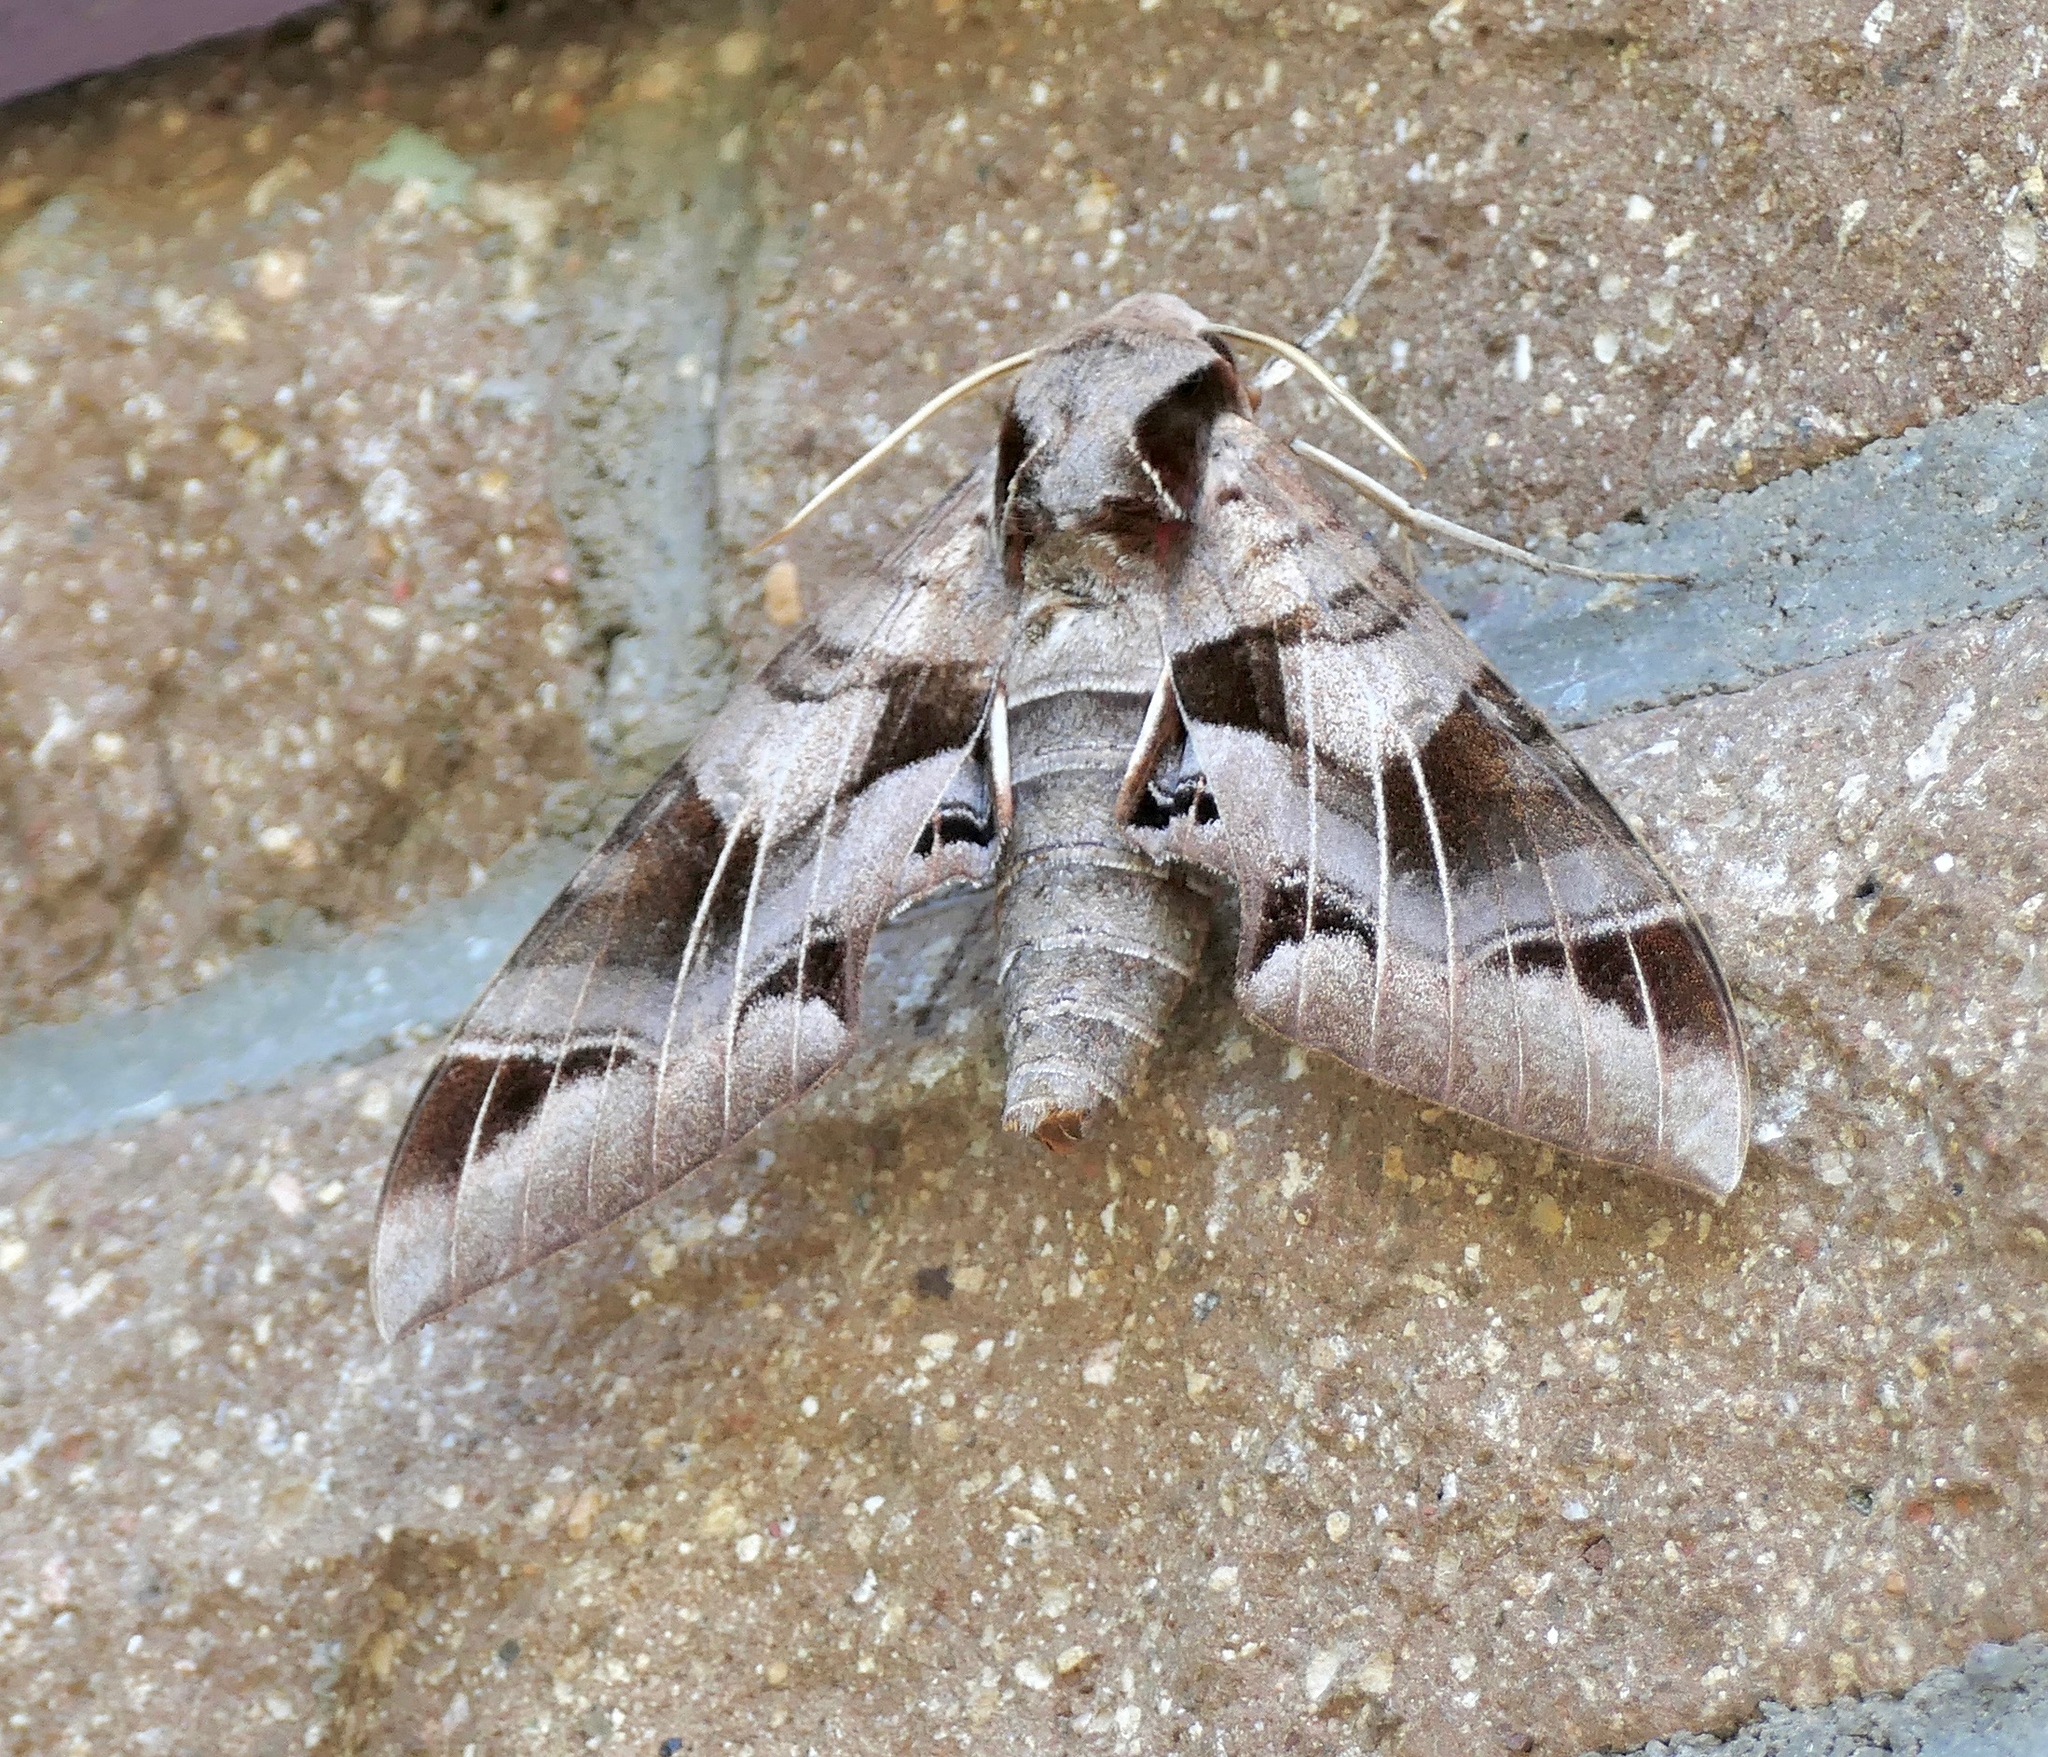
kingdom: Animalia
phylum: Arthropoda
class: Insecta
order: Lepidoptera
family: Sphingidae
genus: Eumorpha
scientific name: Eumorpha typhon
